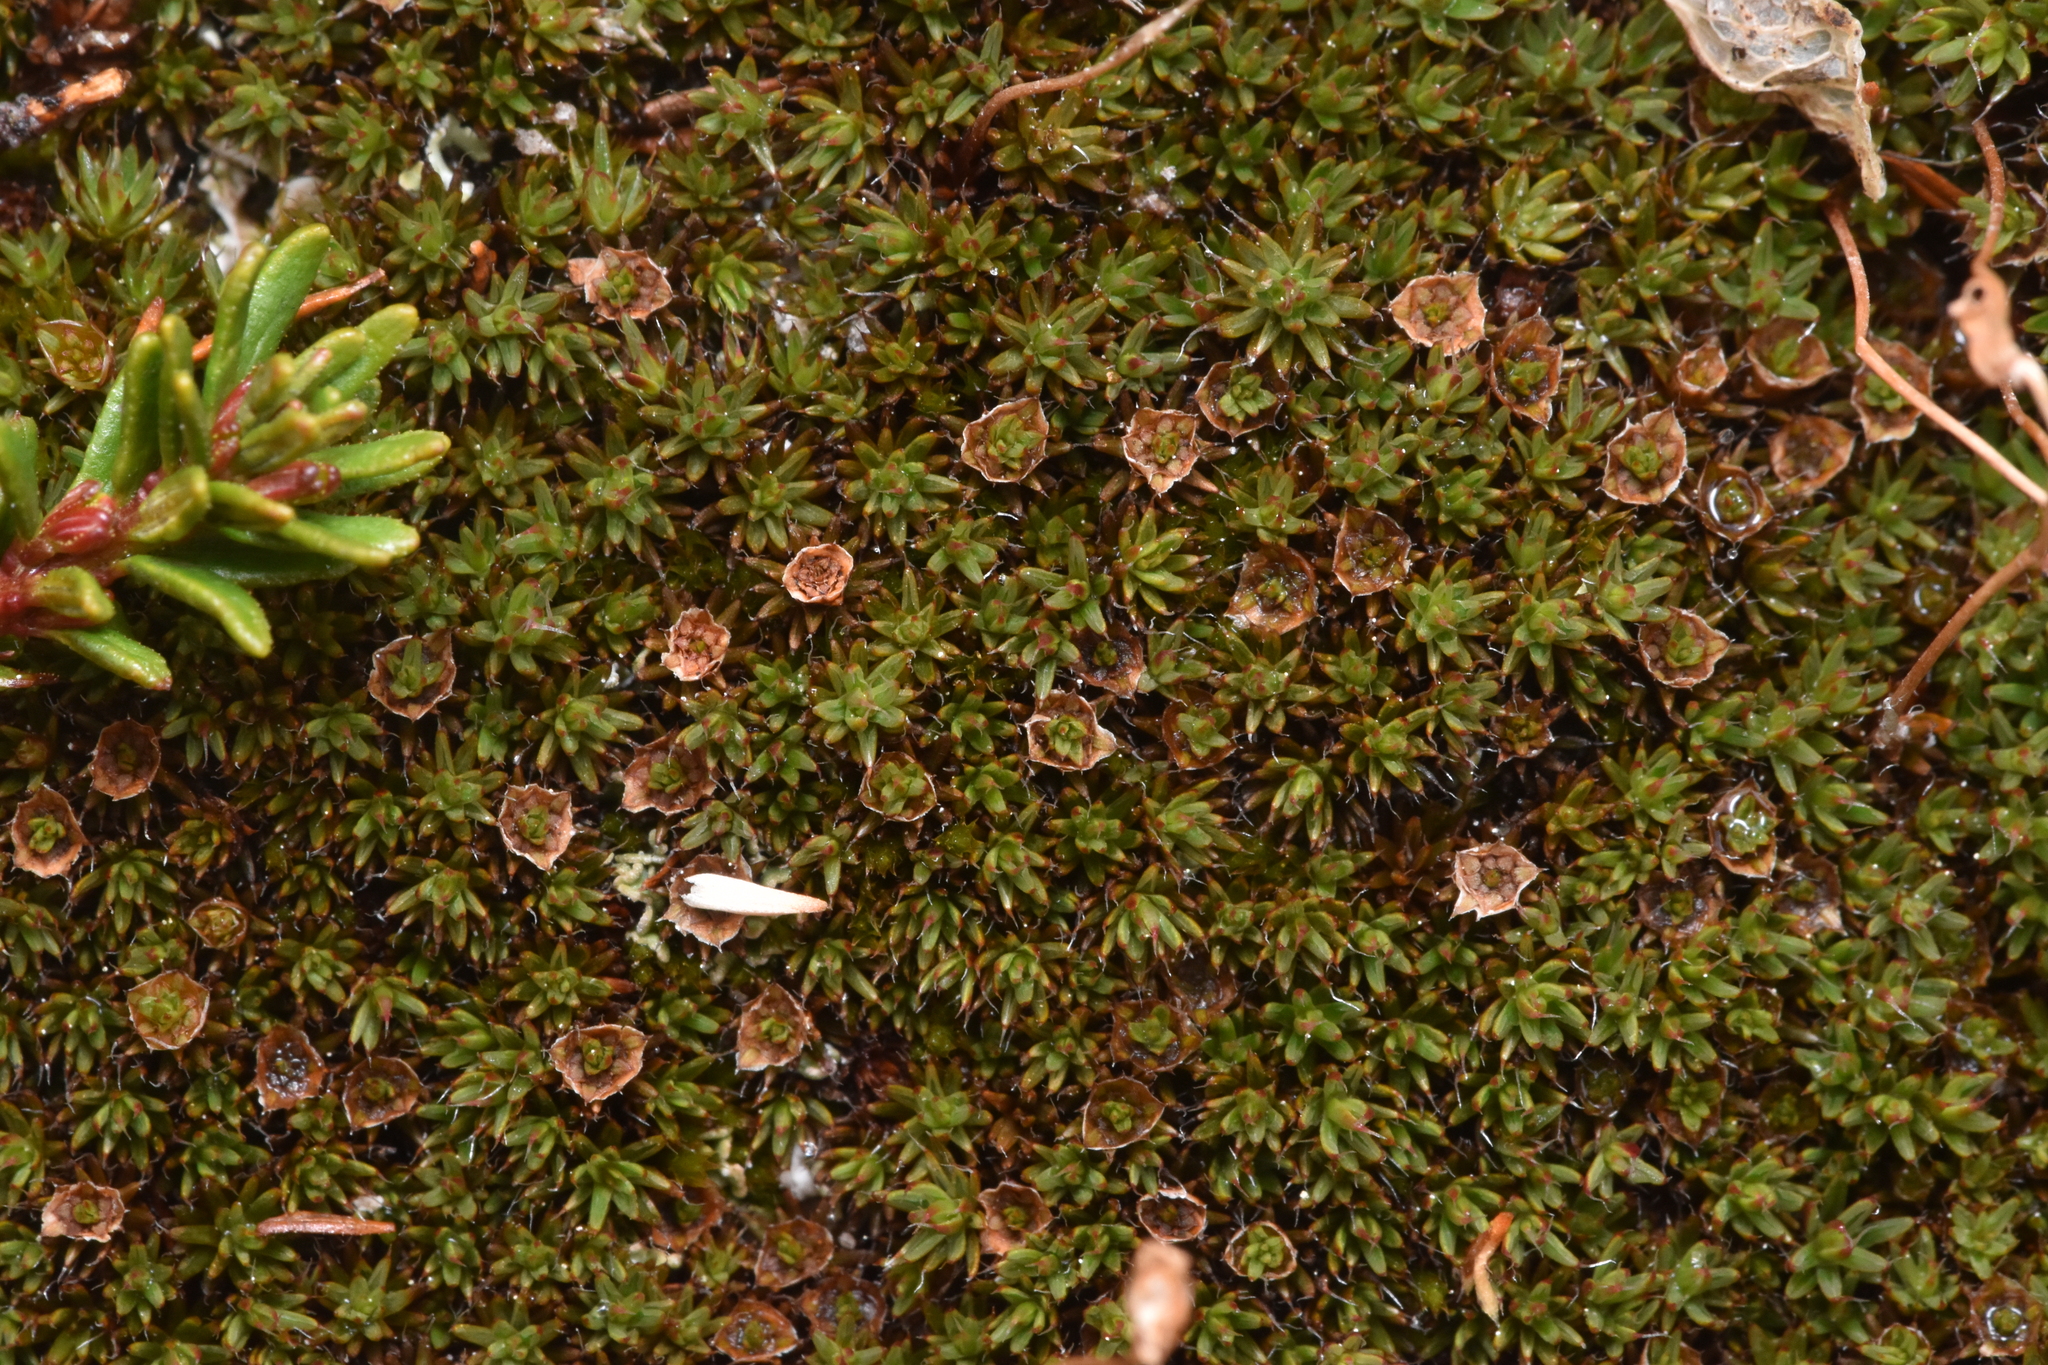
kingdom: Plantae
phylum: Bryophyta
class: Polytrichopsida
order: Polytrichales
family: Polytrichaceae
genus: Polytrichum
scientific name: Polytrichum piliferum
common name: Bristly haircap
